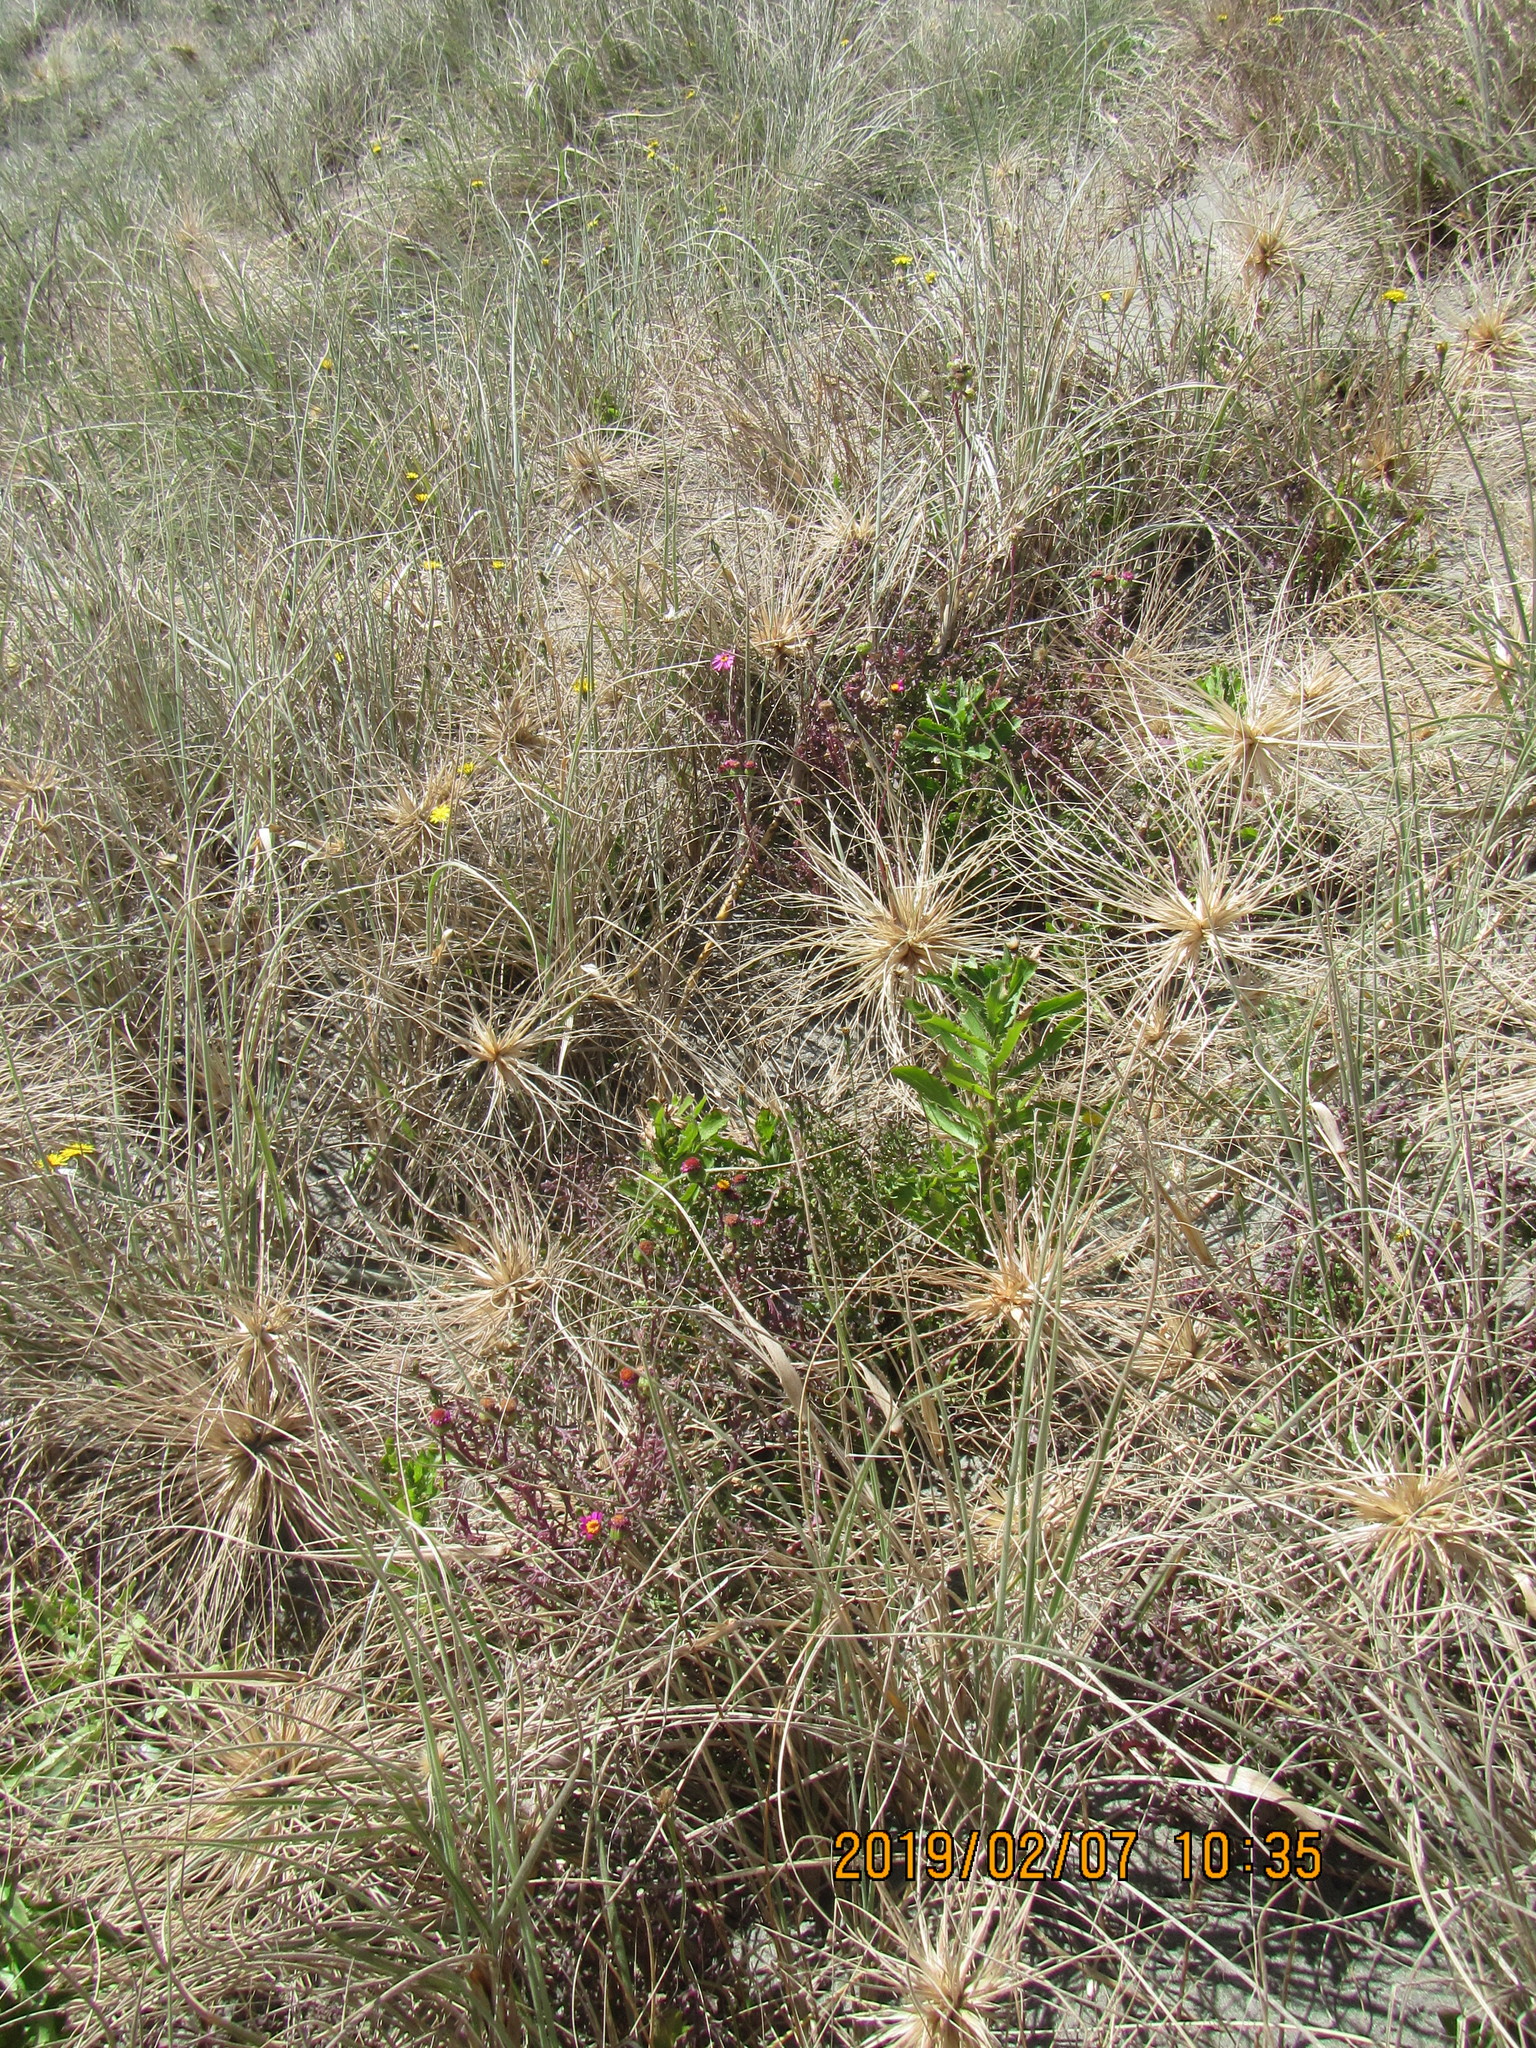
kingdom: Plantae
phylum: Tracheophyta
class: Magnoliopsida
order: Asterales
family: Asteraceae
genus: Senecio
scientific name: Senecio elegans
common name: Purple groundsel
